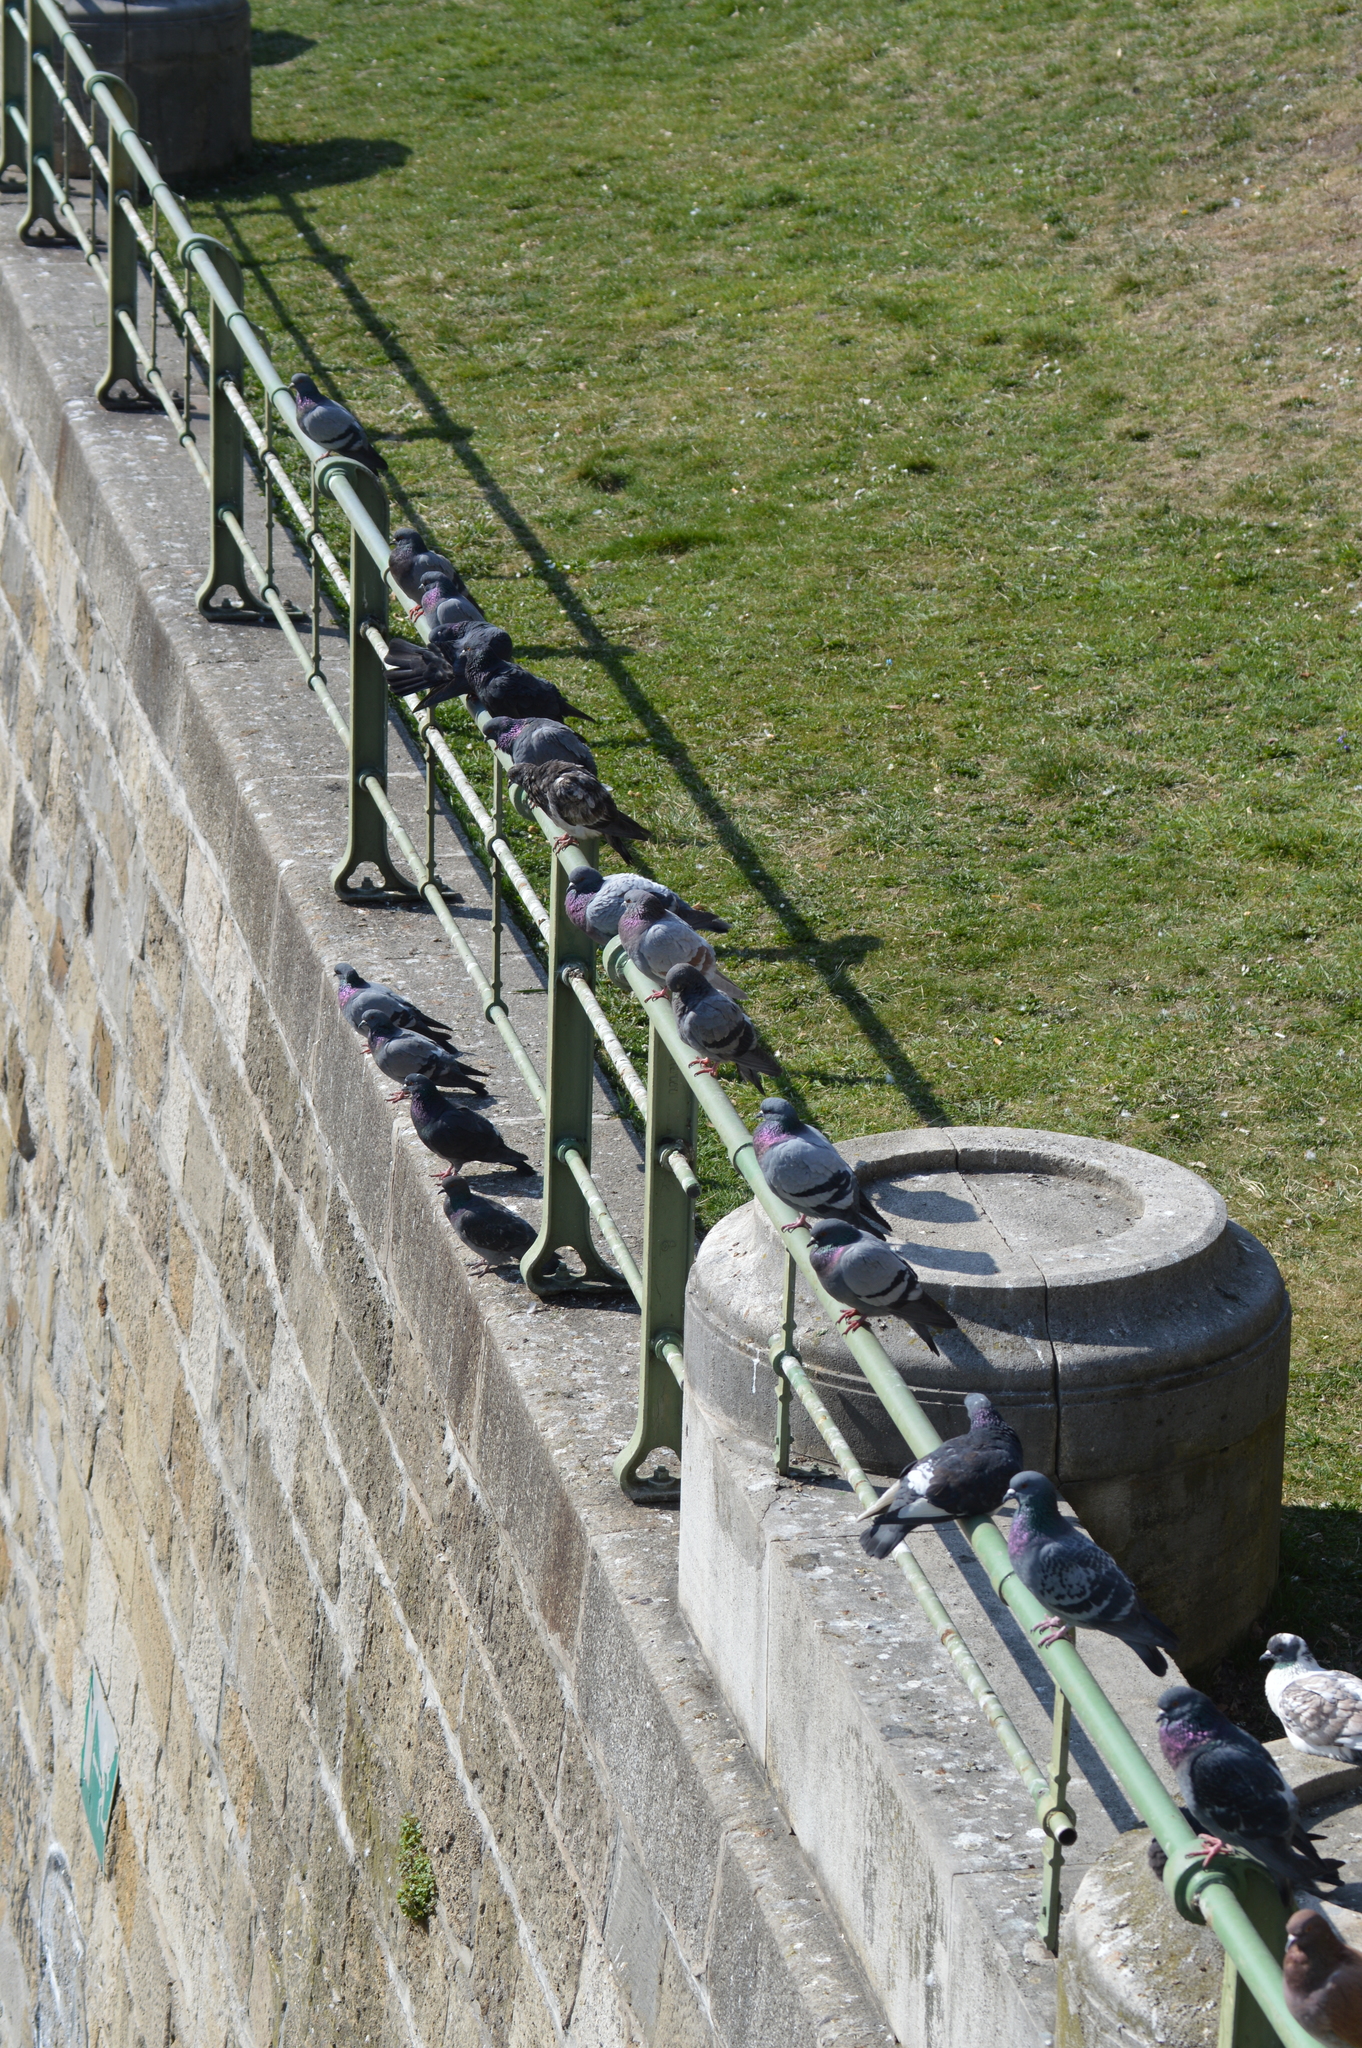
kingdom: Animalia
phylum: Chordata
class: Aves
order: Columbiformes
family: Columbidae
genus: Columba
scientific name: Columba livia
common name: Rock pigeon
